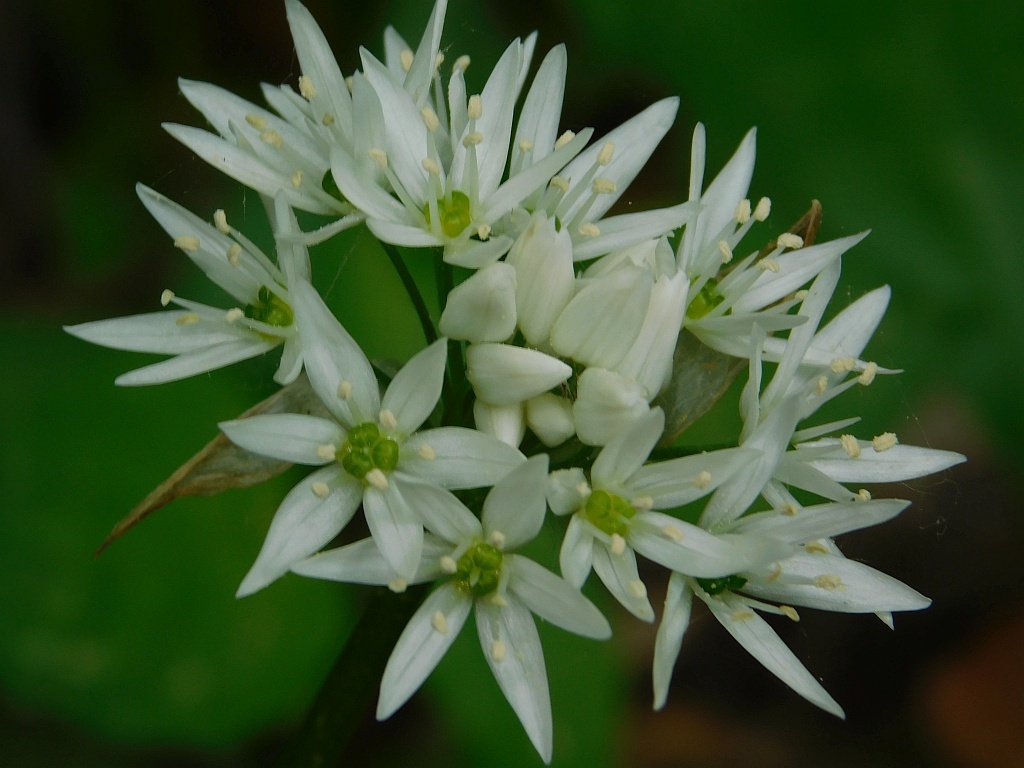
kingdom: Plantae
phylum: Tracheophyta
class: Liliopsida
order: Asparagales
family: Amaryllidaceae
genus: Allium
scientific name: Allium ursinum
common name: Ramsons
